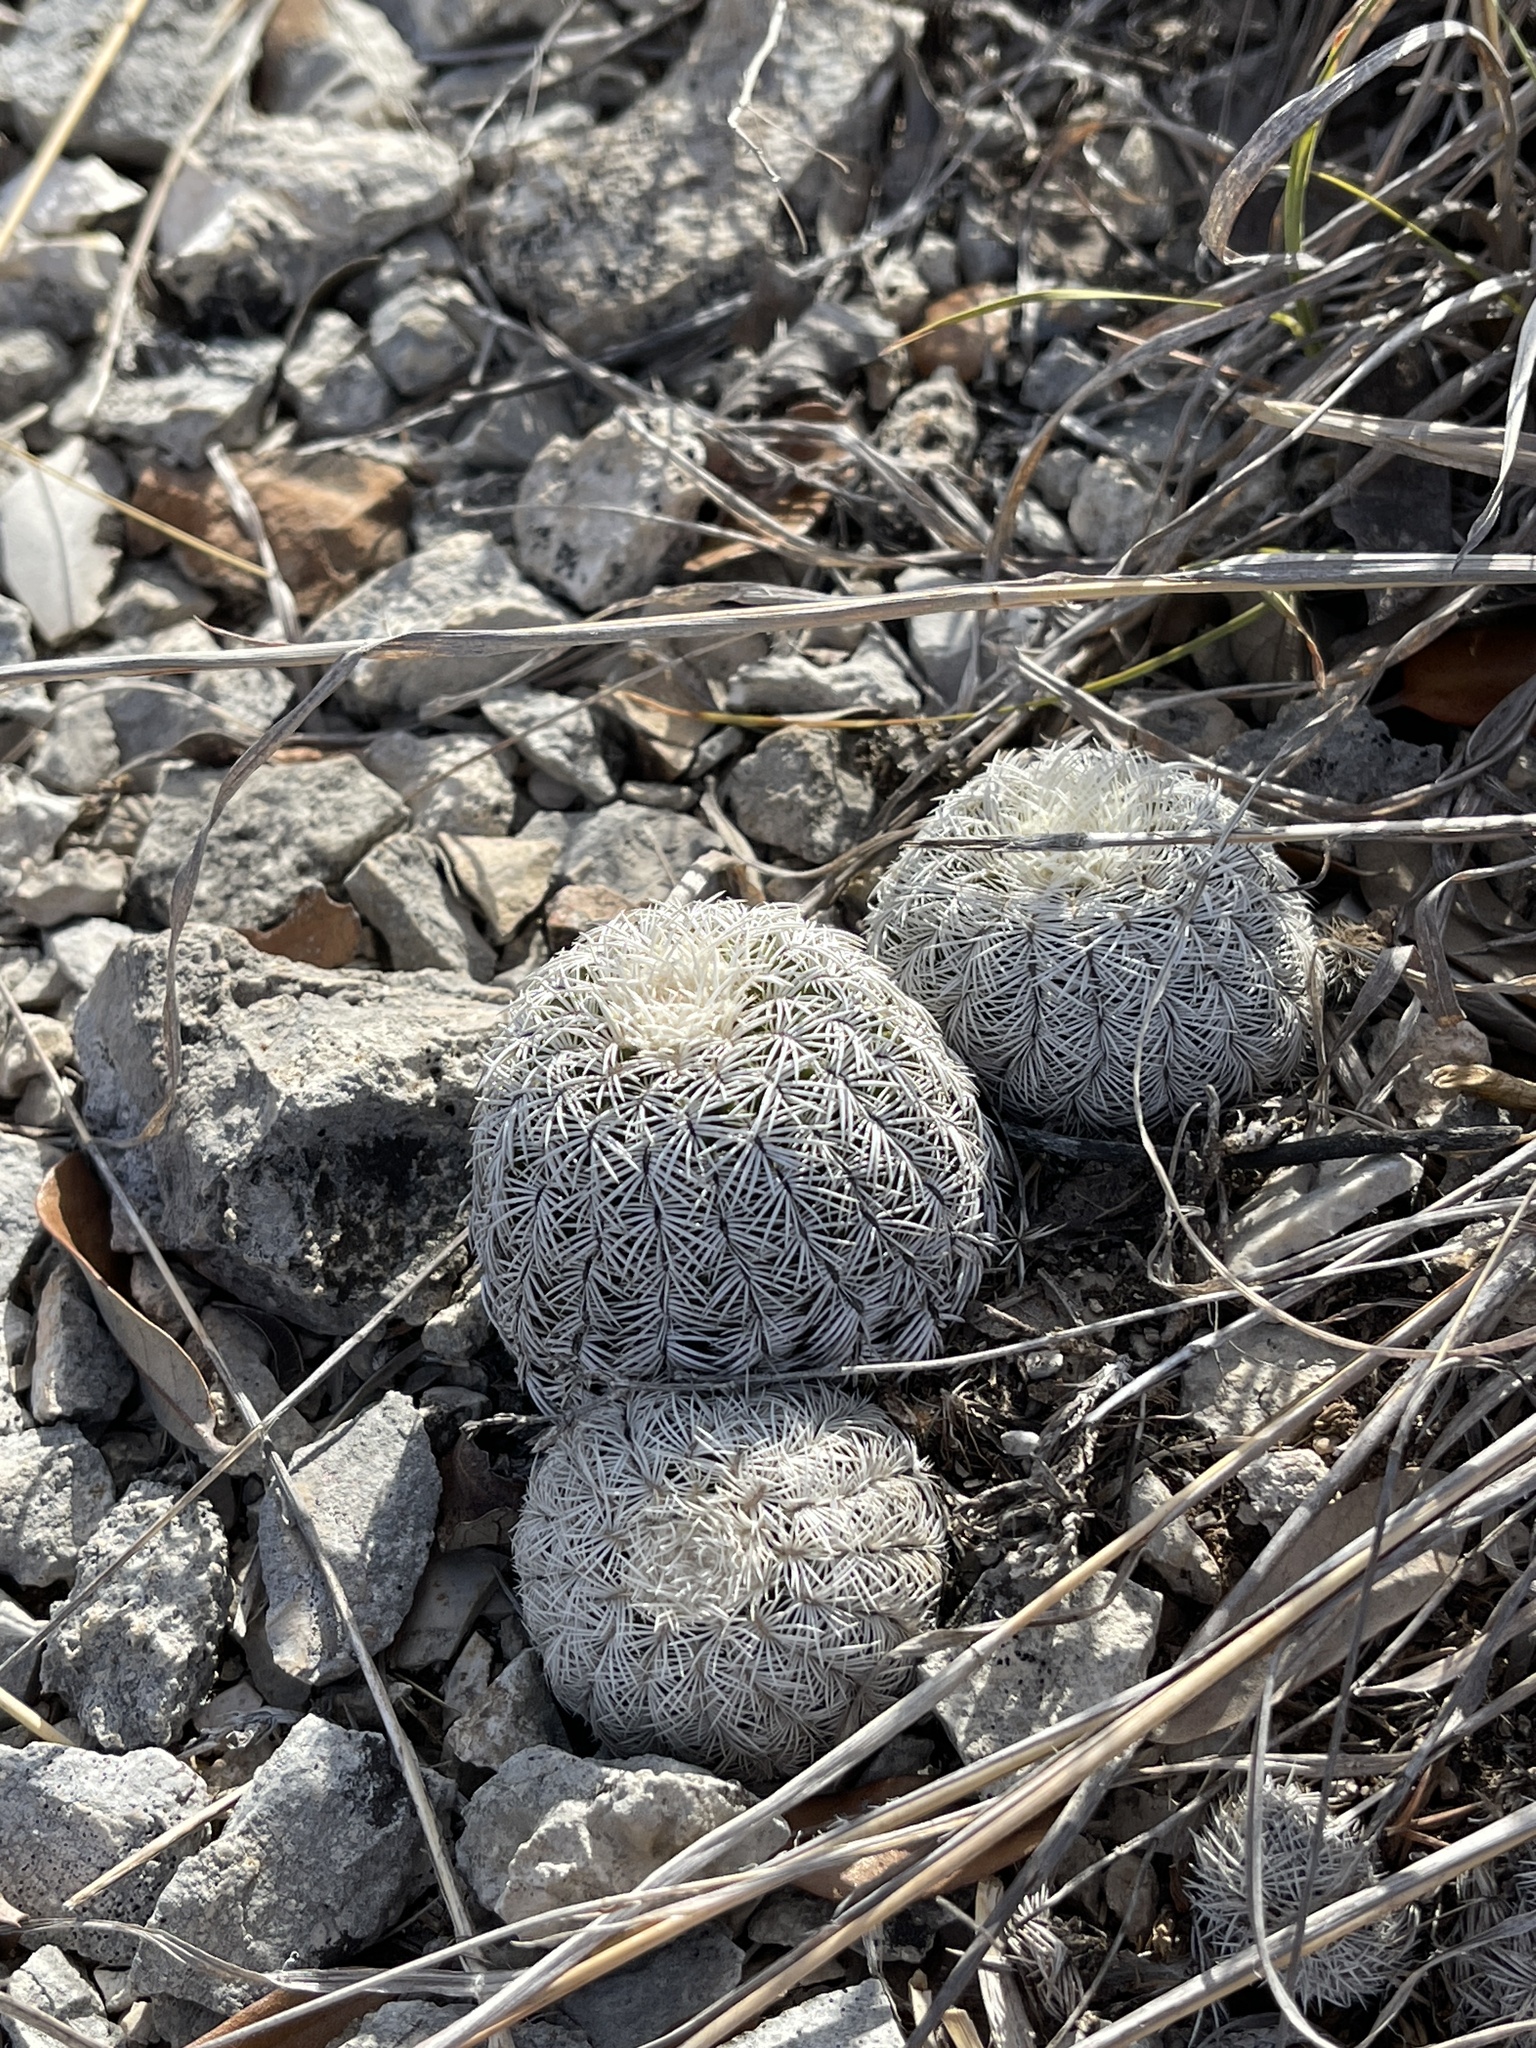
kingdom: Plantae
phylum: Tracheophyta
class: Magnoliopsida
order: Caryophyllales
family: Cactaceae
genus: Echinocereus
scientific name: Echinocereus reichenbachii
